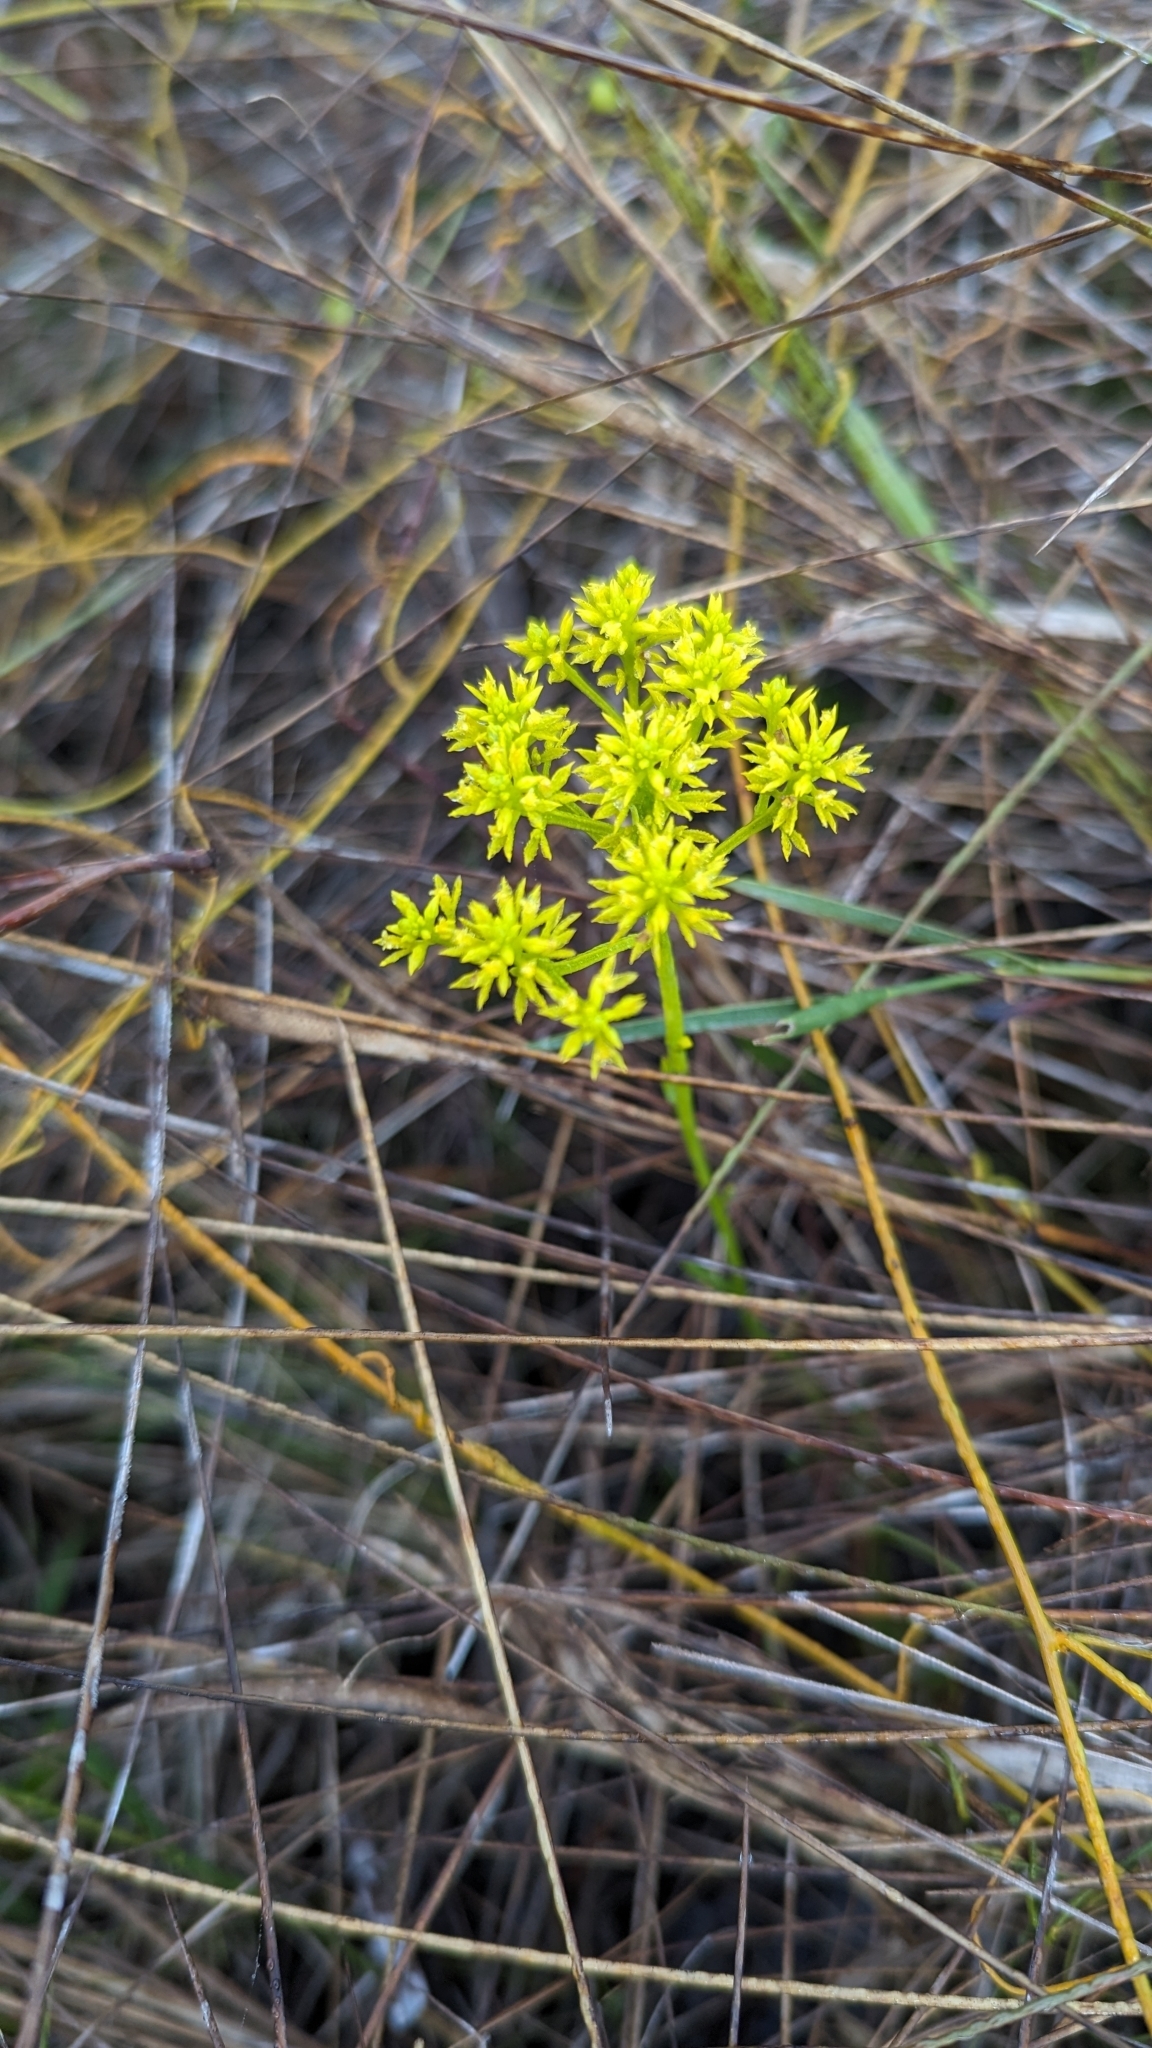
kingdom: Plantae
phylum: Tracheophyta
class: Magnoliopsida
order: Fabales
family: Polygalaceae
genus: Polygala
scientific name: Polygala ramosa
